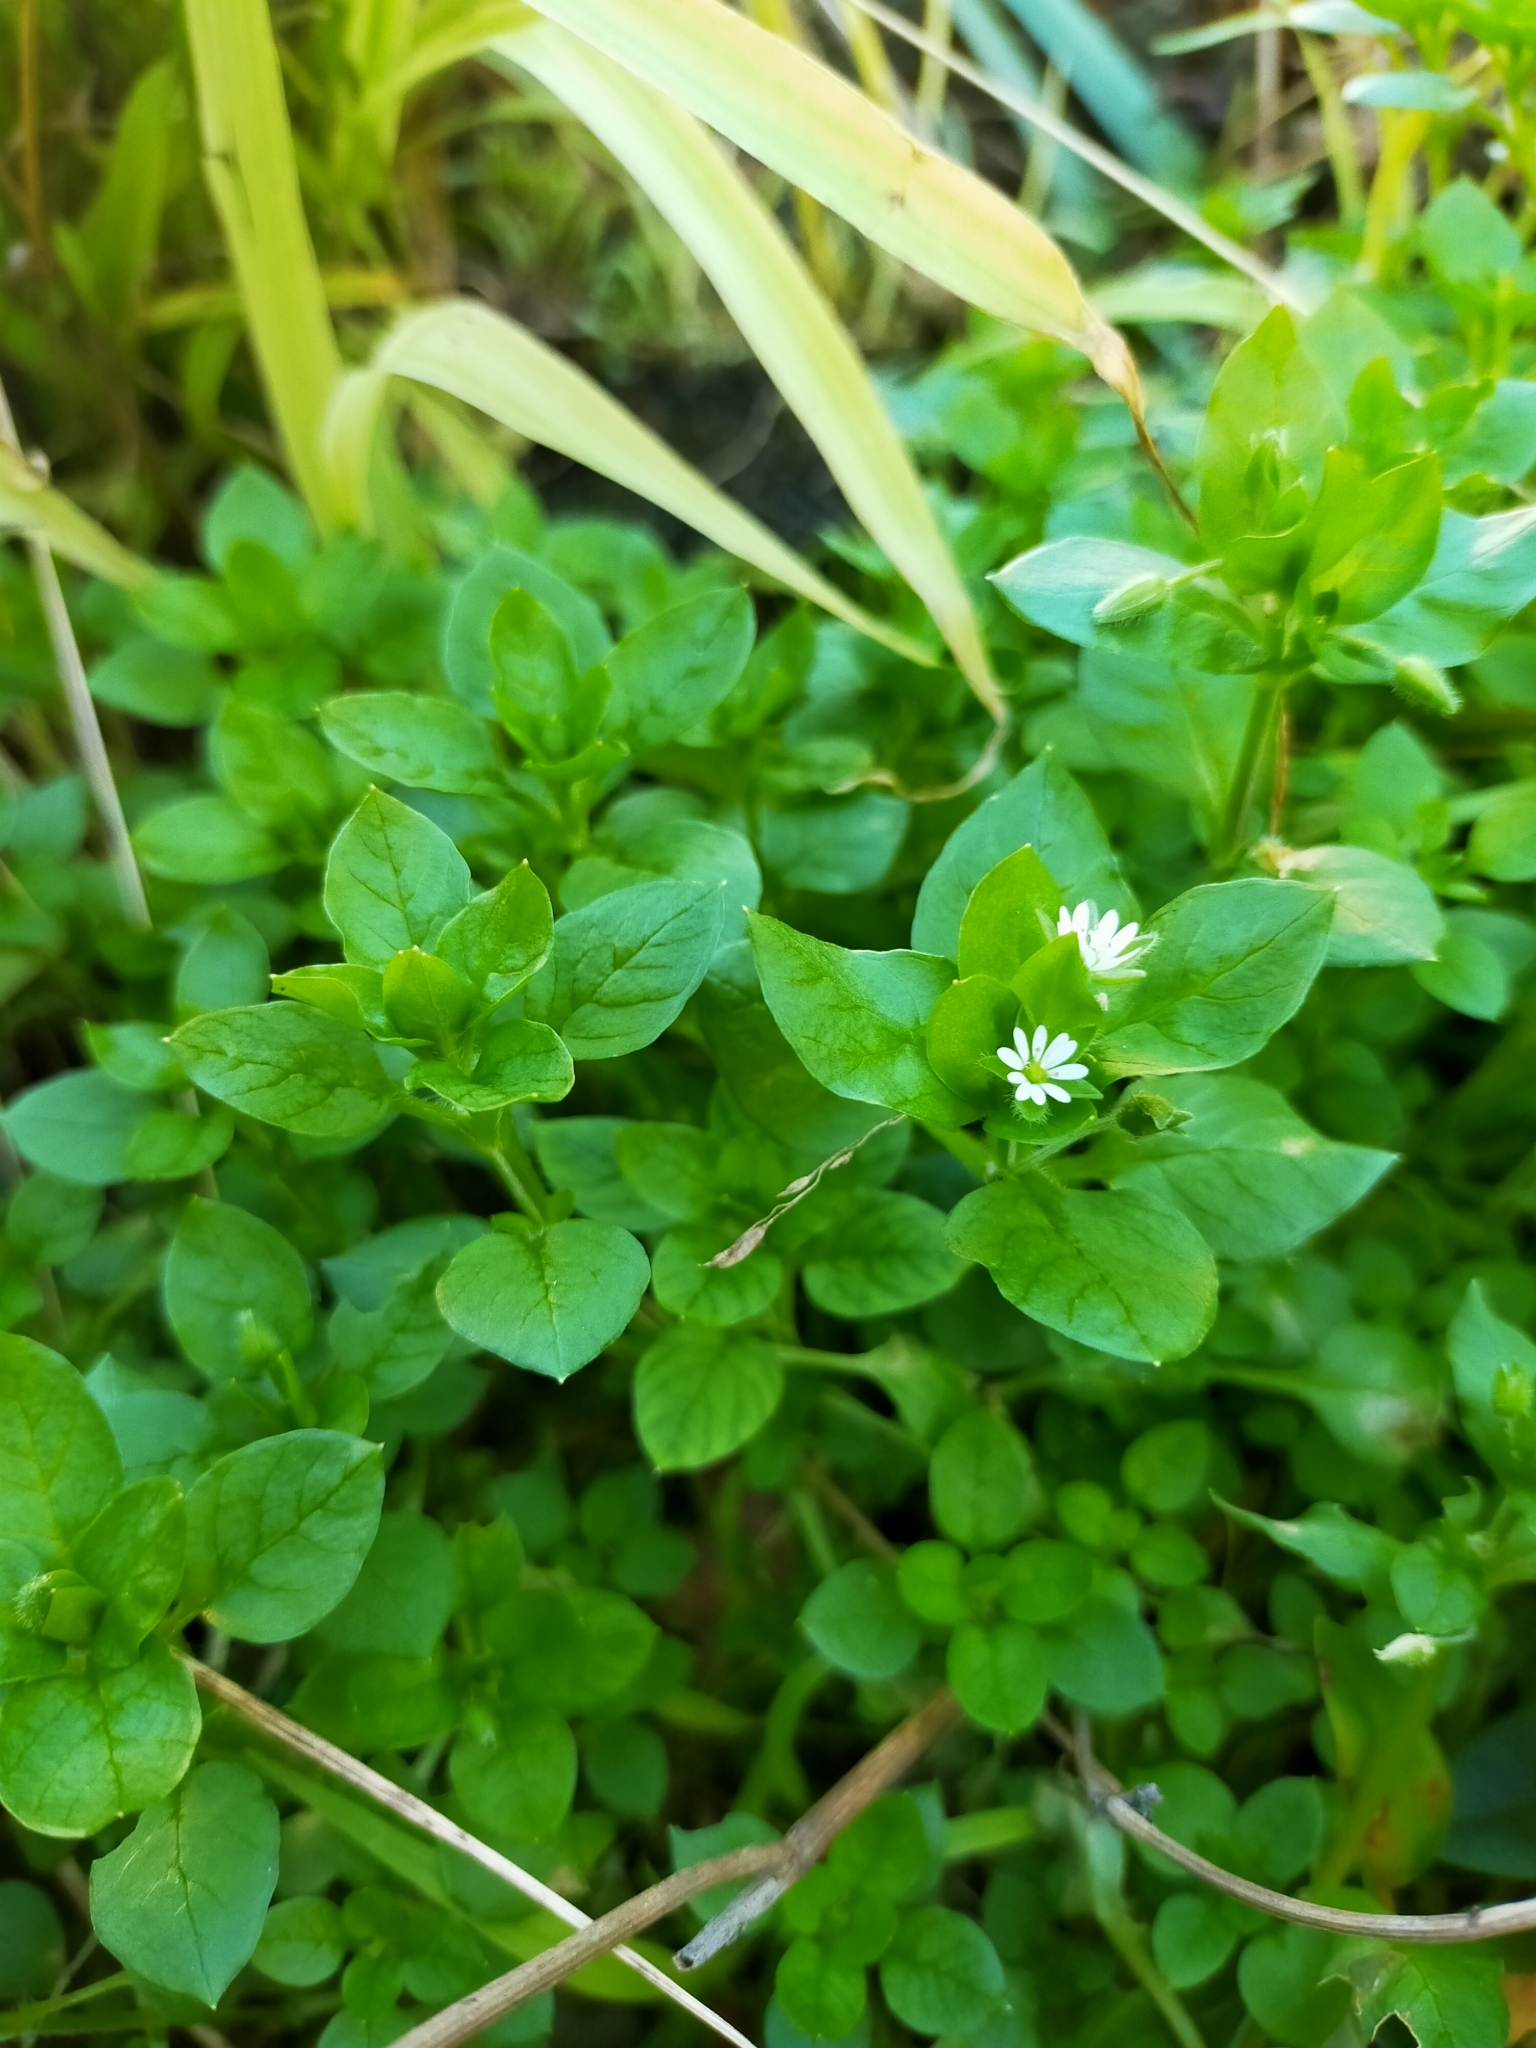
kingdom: Plantae
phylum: Tracheophyta
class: Magnoliopsida
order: Caryophyllales
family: Caryophyllaceae
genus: Stellaria
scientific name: Stellaria media
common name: Common chickweed
